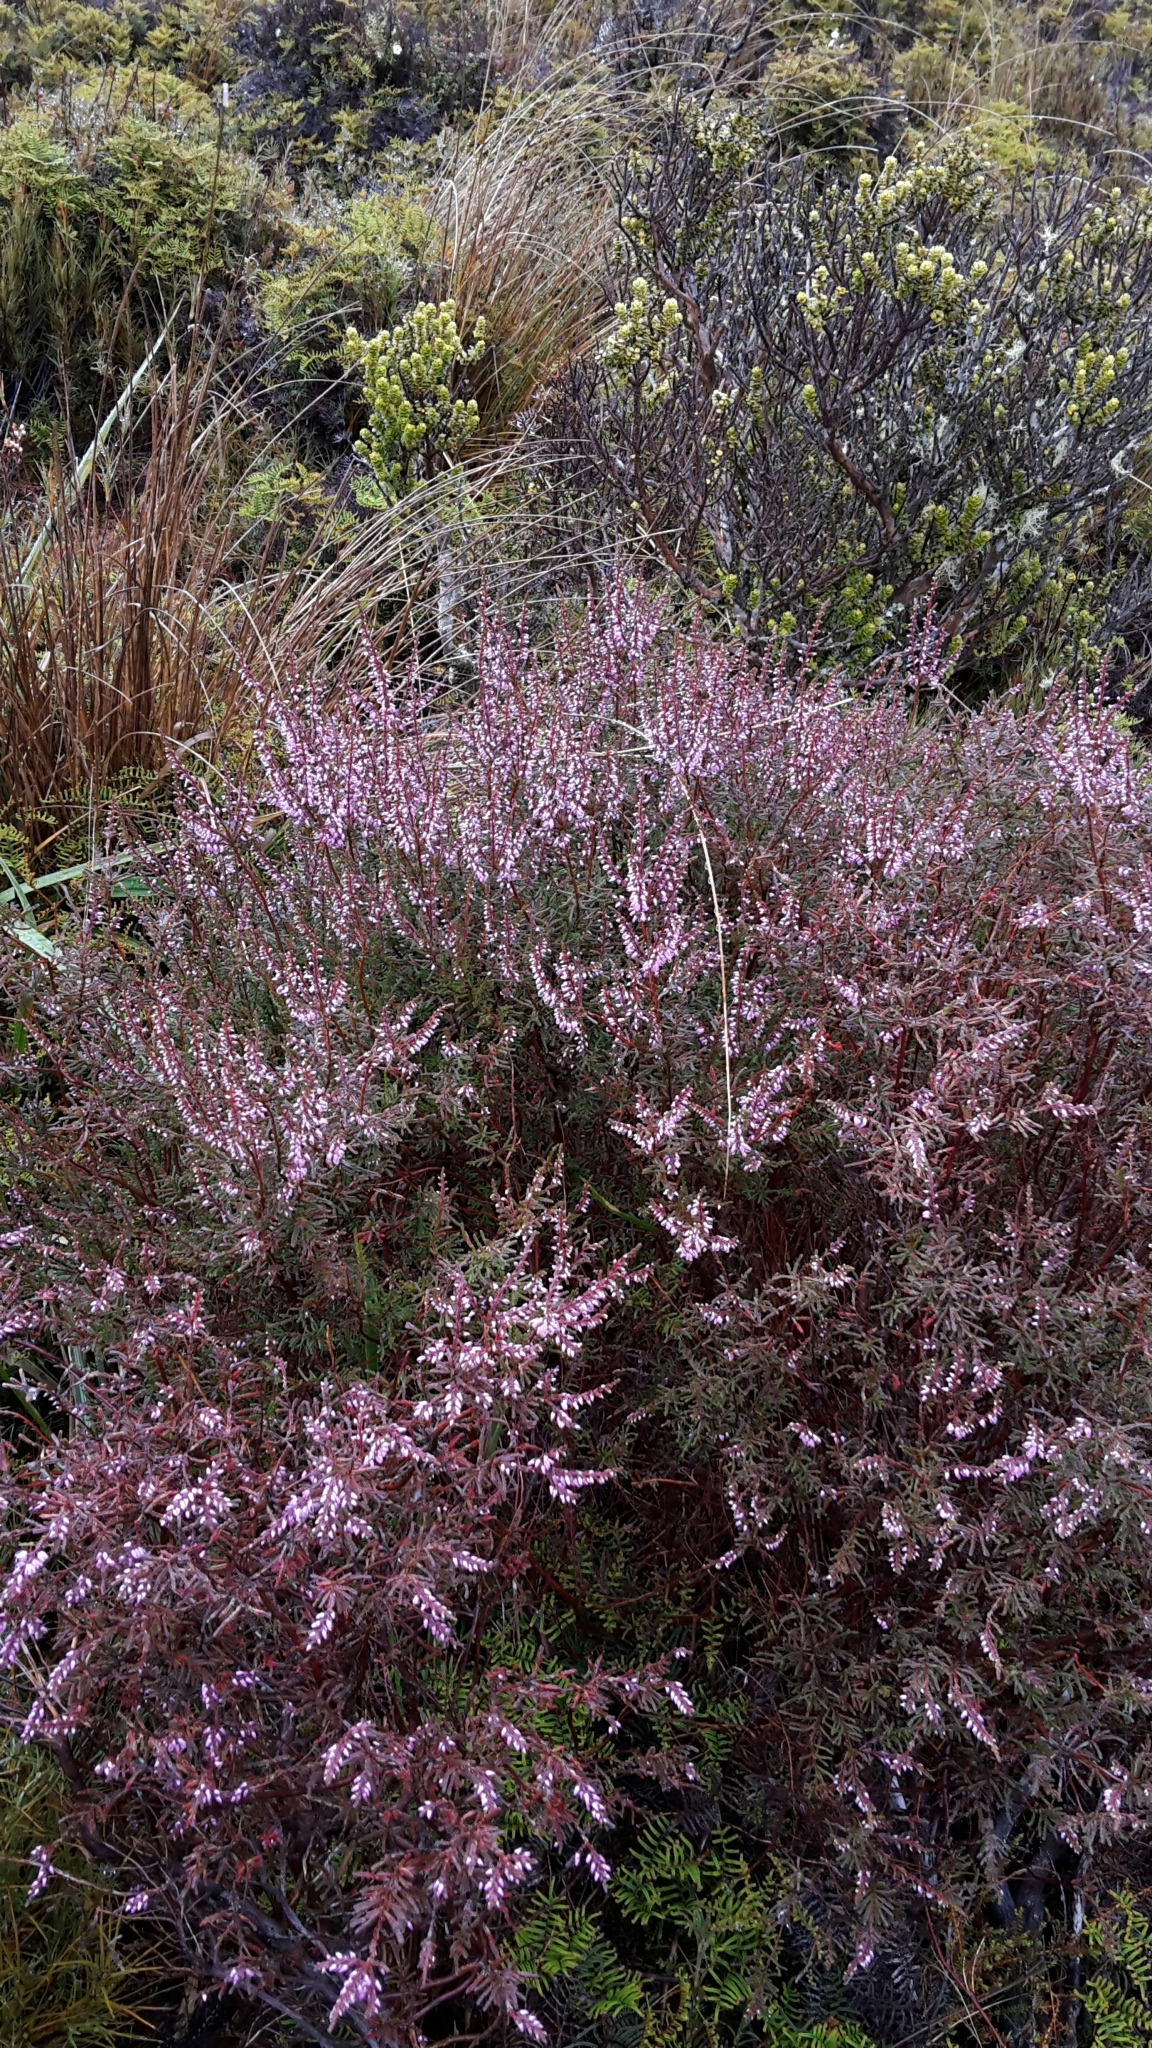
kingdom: Plantae
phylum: Tracheophyta
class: Magnoliopsida
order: Ericales
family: Ericaceae
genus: Calluna
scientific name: Calluna vulgaris
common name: Heather
